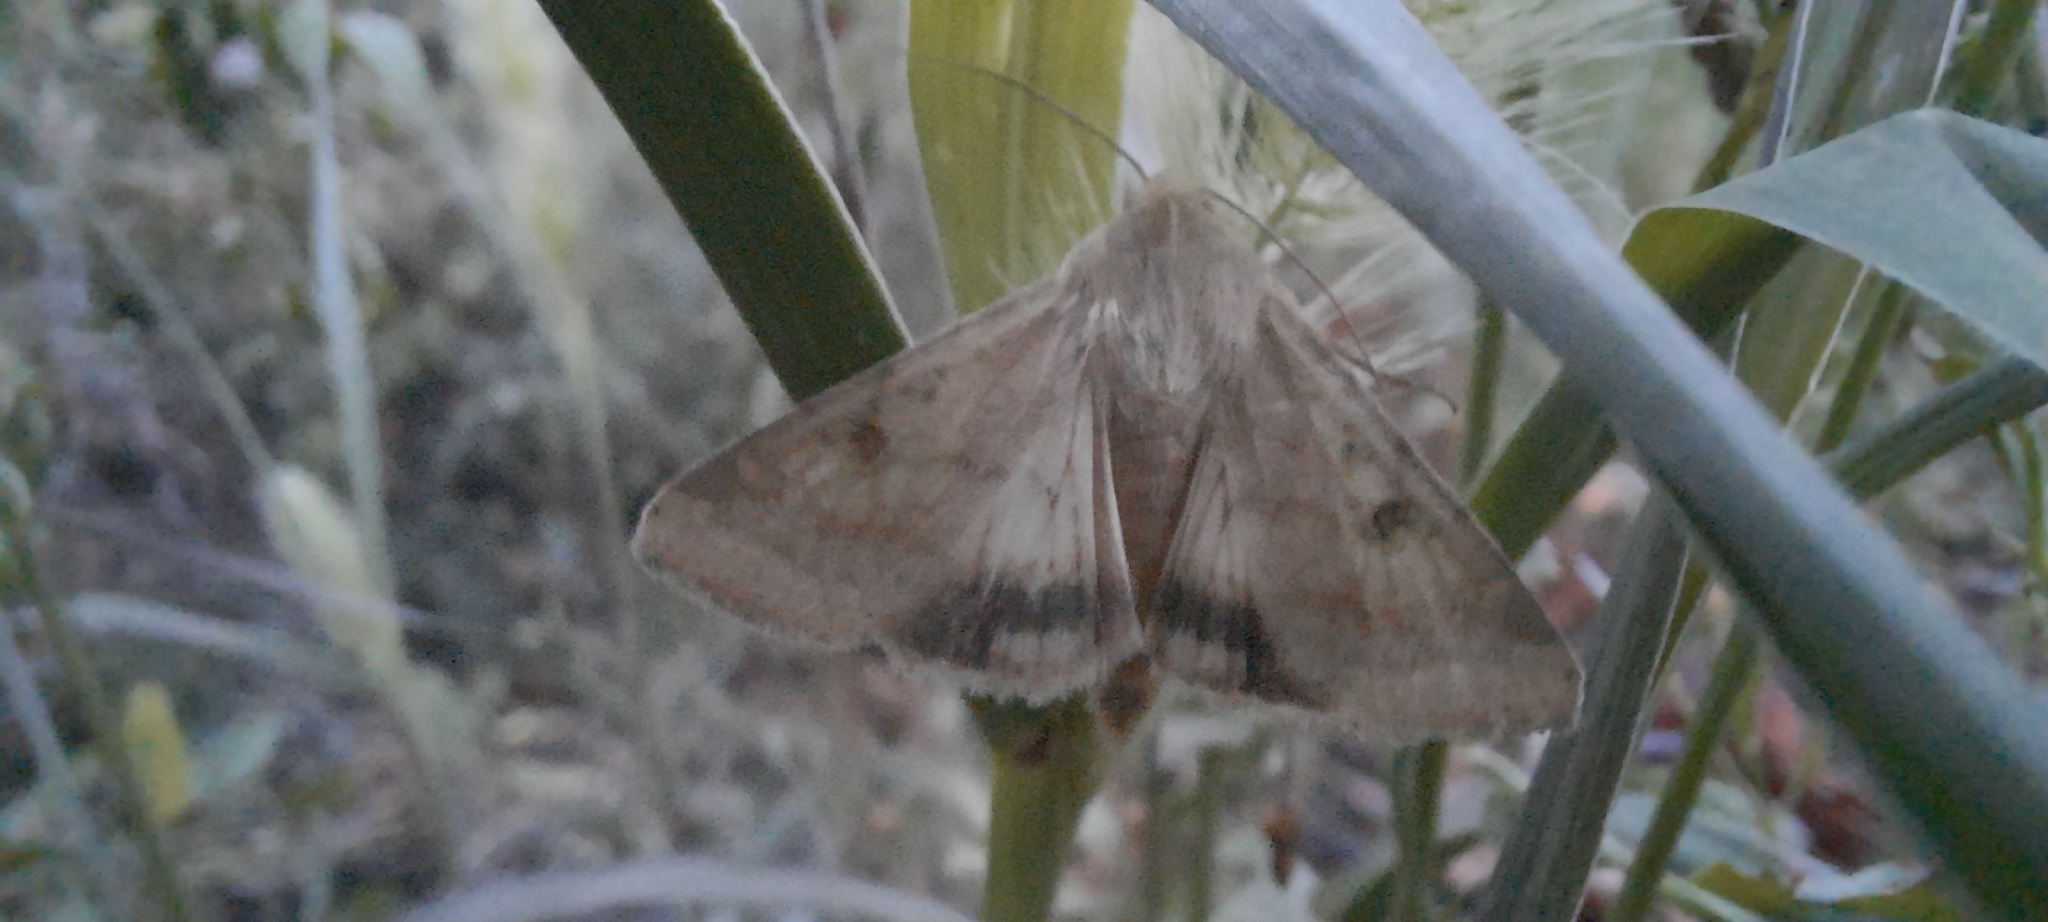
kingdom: Animalia
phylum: Arthropoda
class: Insecta
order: Lepidoptera
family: Noctuidae
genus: Helicoverpa
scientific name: Helicoverpa armigera
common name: Cotton bollworm
